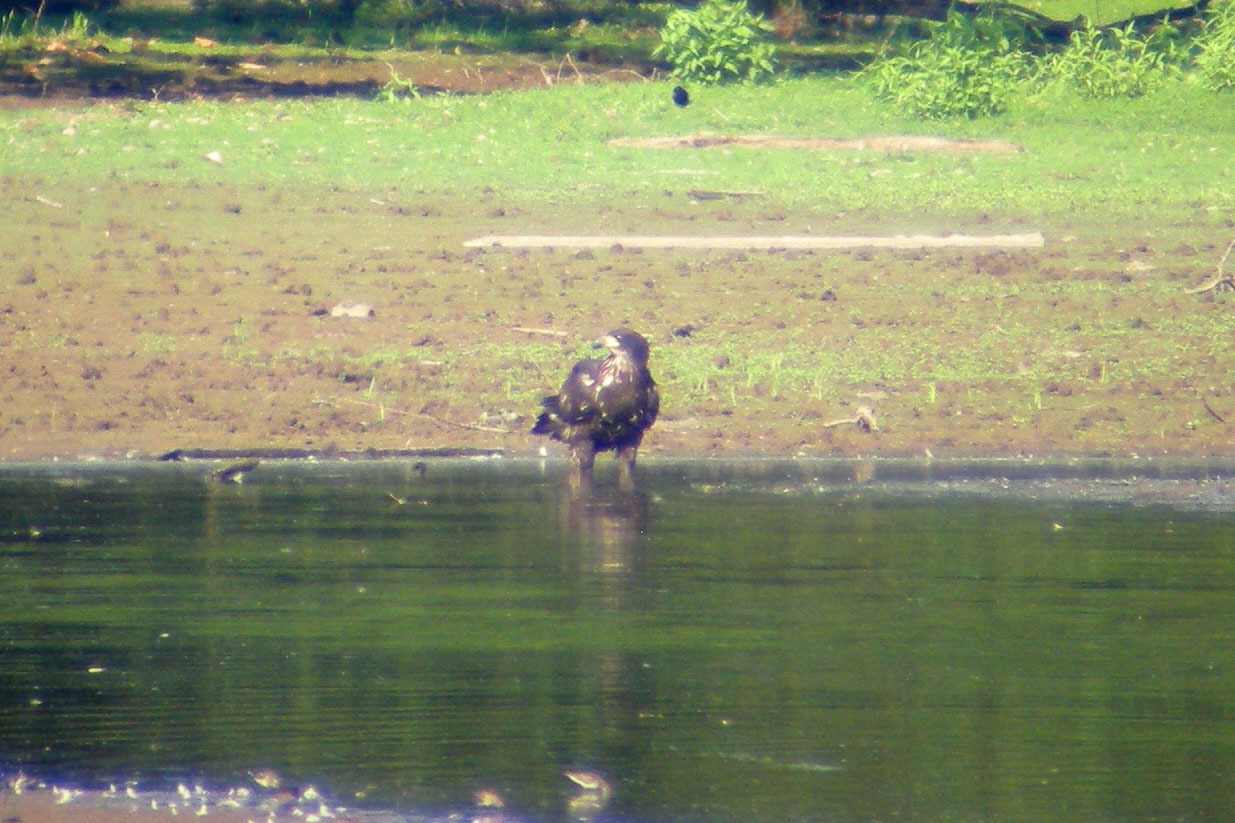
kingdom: Animalia
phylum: Chordata
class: Aves
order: Accipitriformes
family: Accipitridae
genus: Haliaeetus
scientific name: Haliaeetus leucocephalus
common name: Bald eagle
